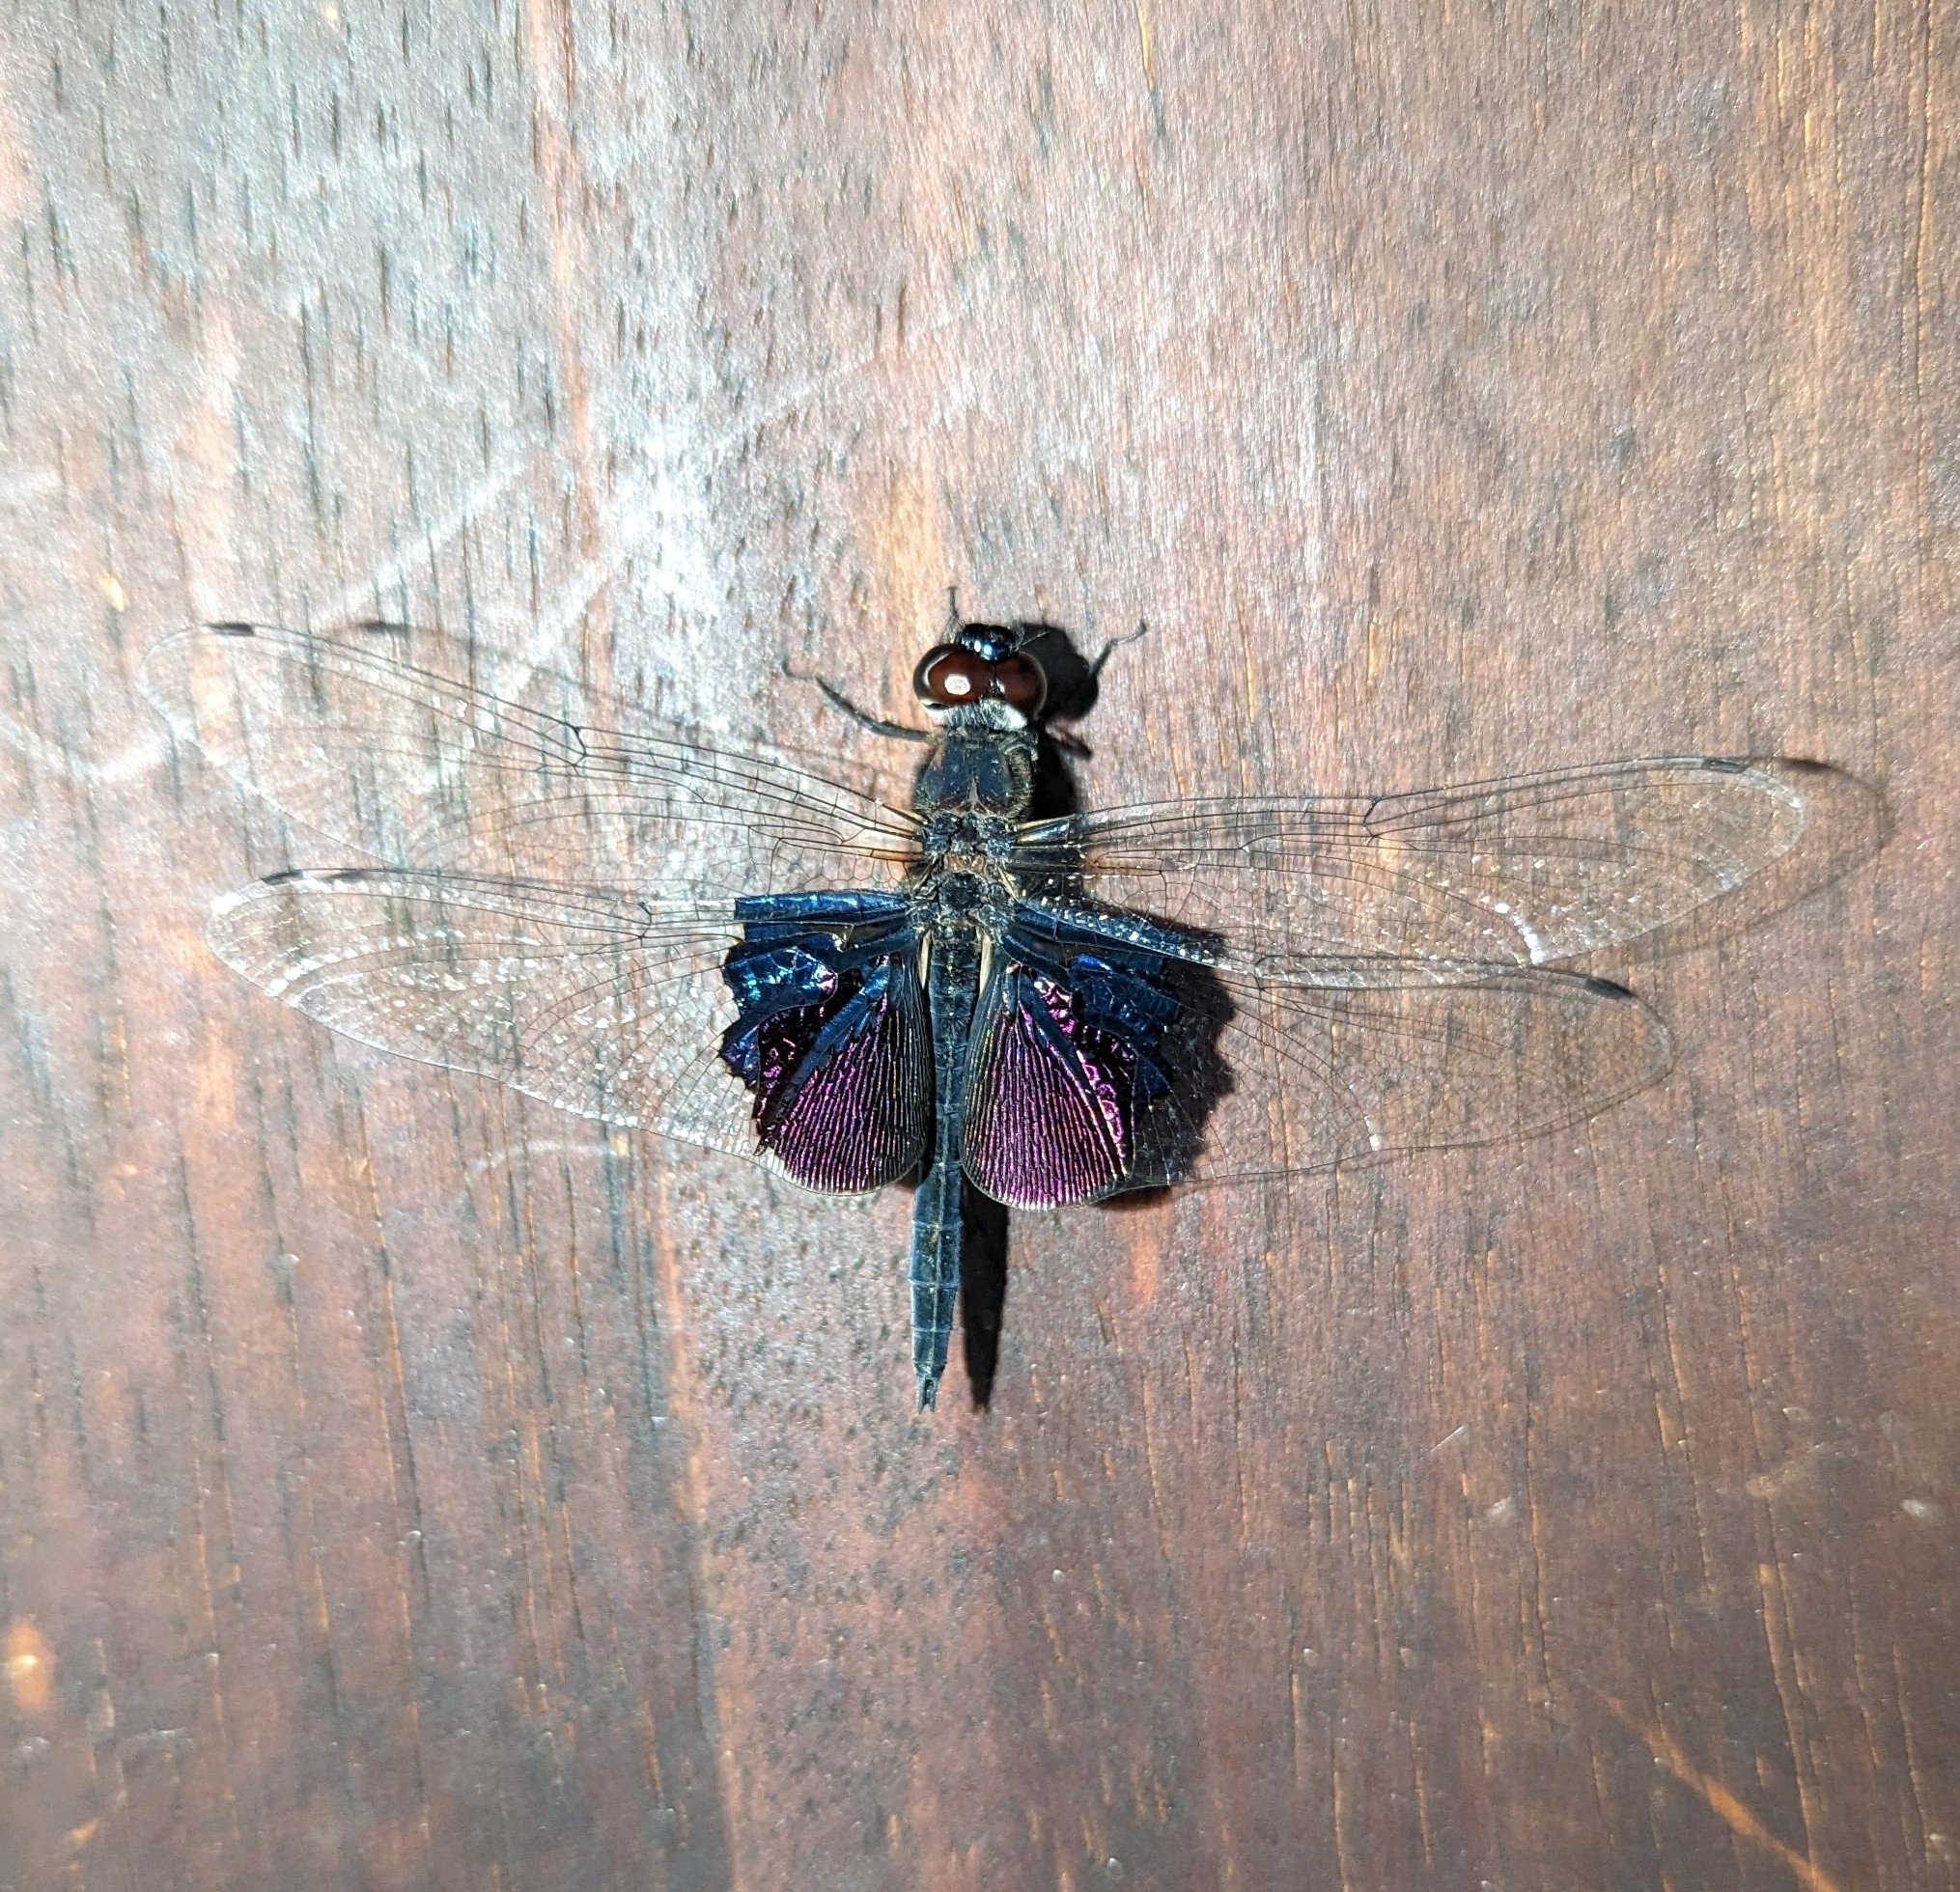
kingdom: Animalia
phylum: Arthropoda
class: Insecta
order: Odonata
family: Libellulidae
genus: Rhyothemis
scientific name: Rhyothemis semihyalina
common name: Phantom flutterer
